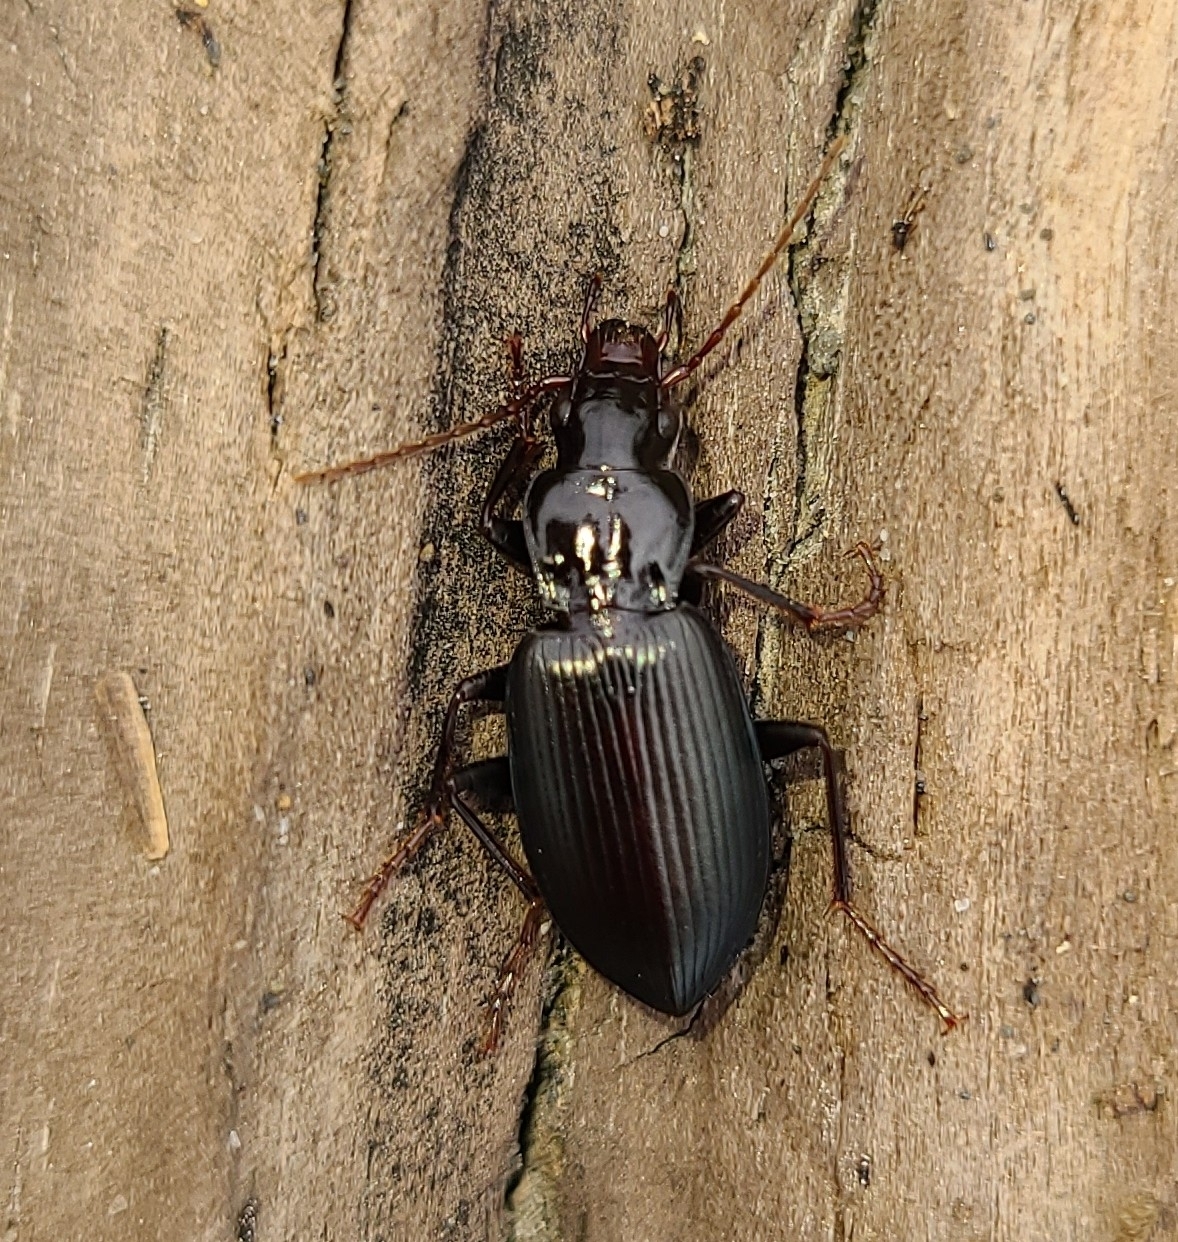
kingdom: Animalia
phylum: Arthropoda
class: Insecta
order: Coleoptera
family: Carabidae
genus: Laemostenus
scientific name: Laemostenus complanatus
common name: Cosmopolitan ground beetle
